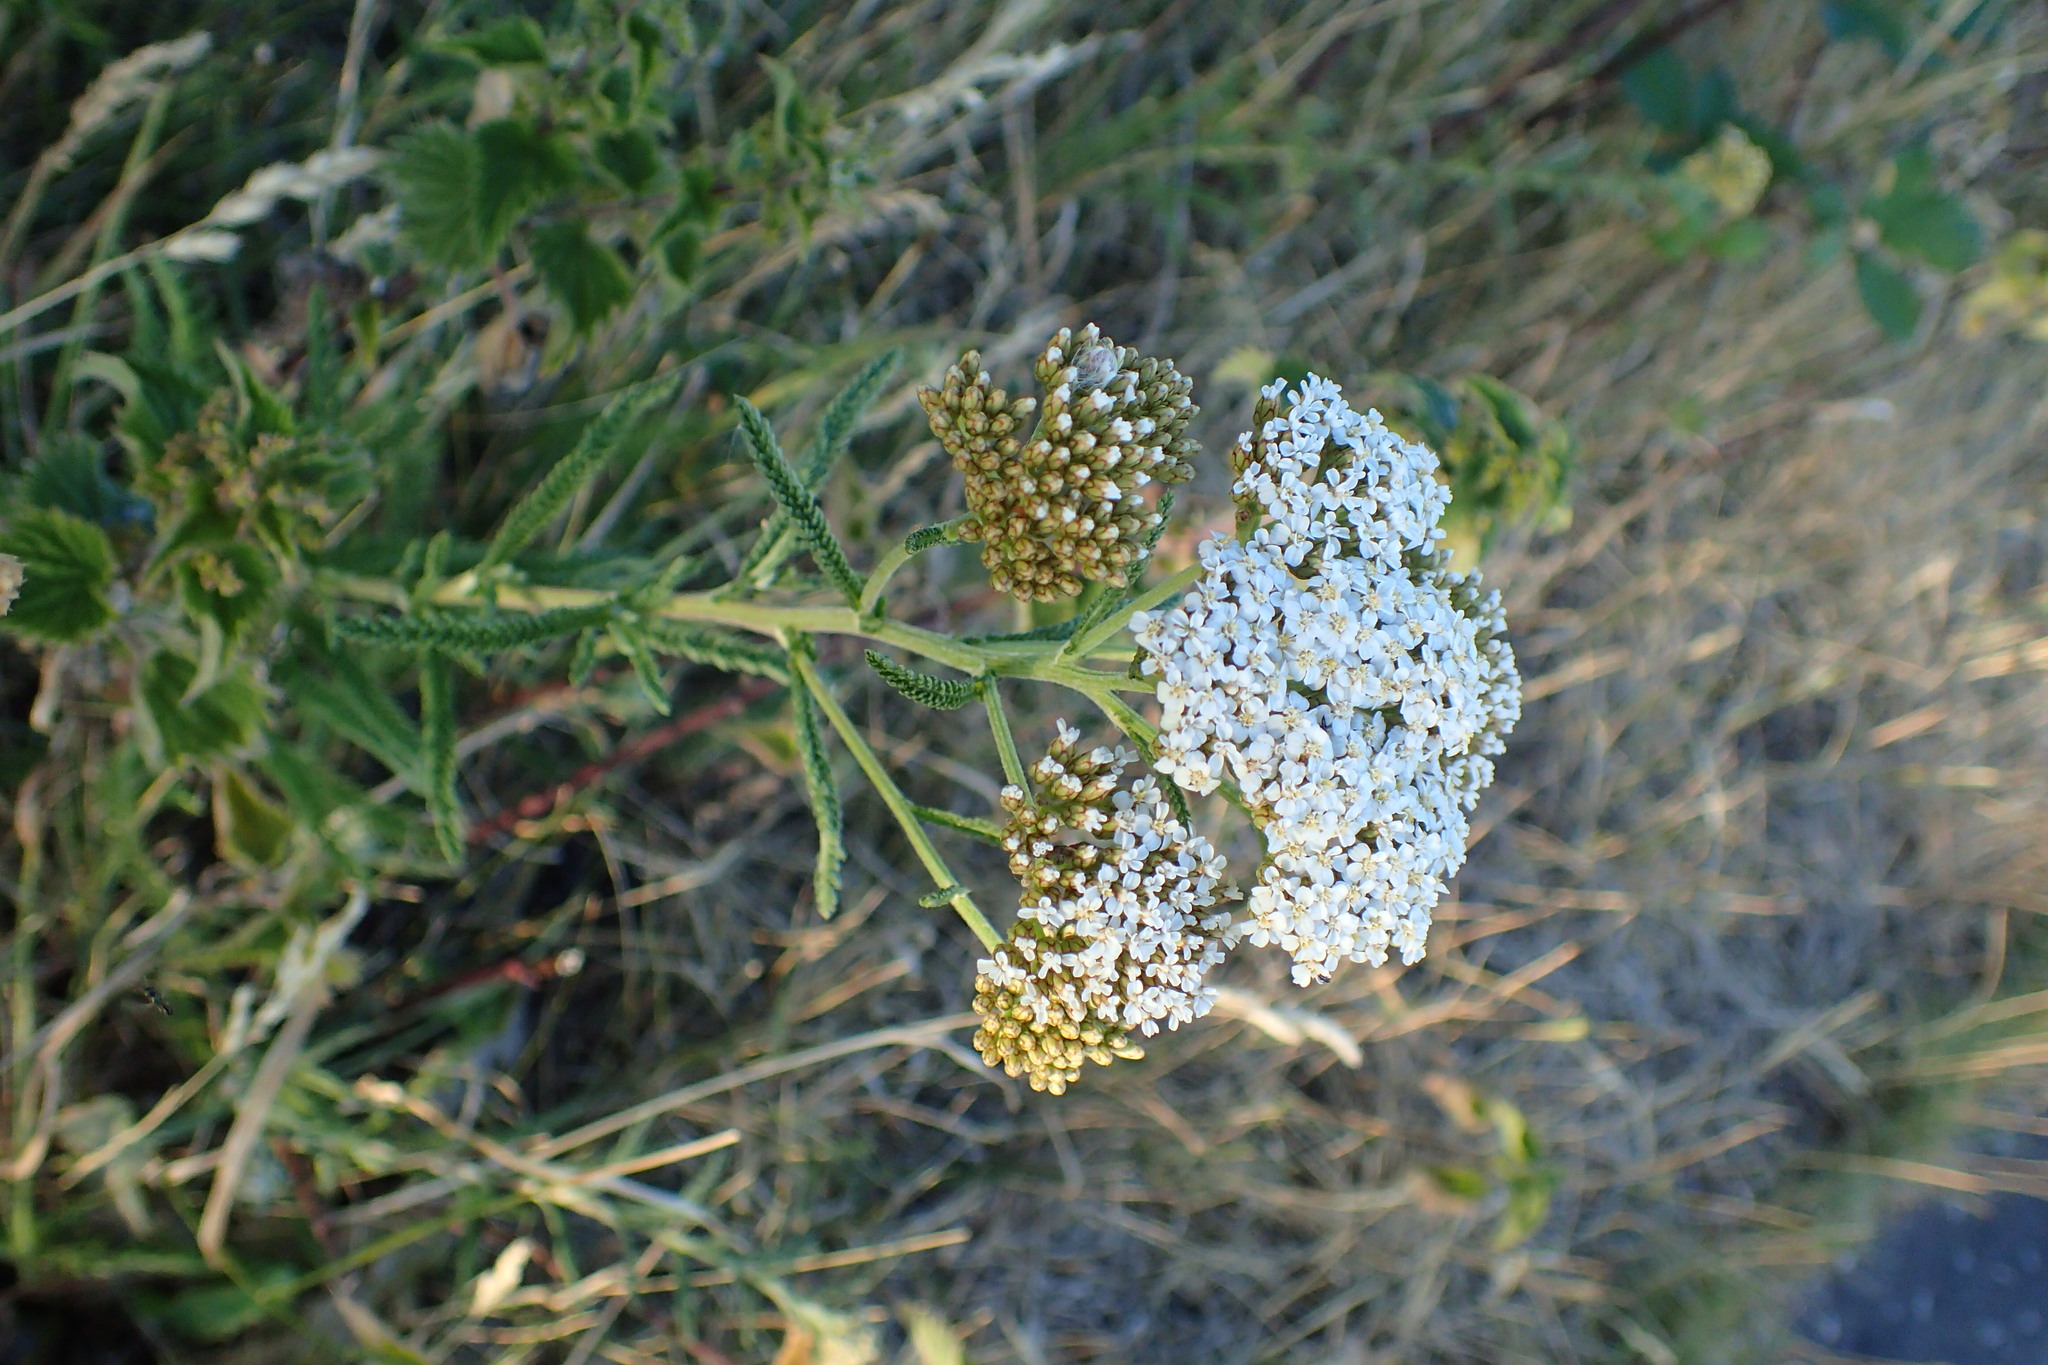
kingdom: Plantae
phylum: Tracheophyta
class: Magnoliopsida
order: Asterales
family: Asteraceae
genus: Achillea
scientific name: Achillea millefolium
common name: Yarrow
